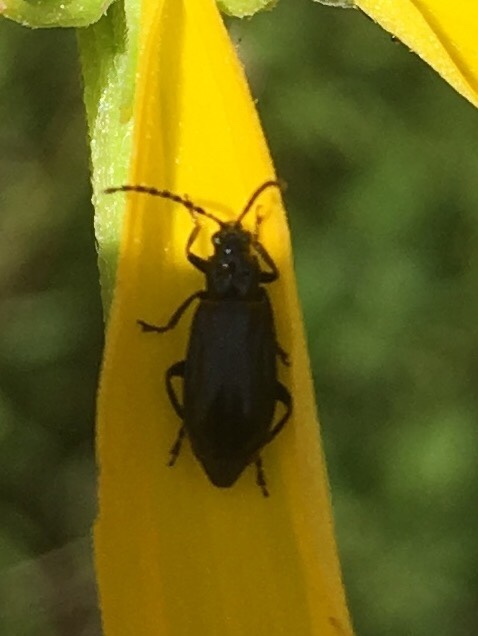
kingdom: Animalia
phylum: Arthropoda
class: Insecta
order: Coleoptera
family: Chrysomelidae
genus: Diabrotica
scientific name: Diabrotica cristata
